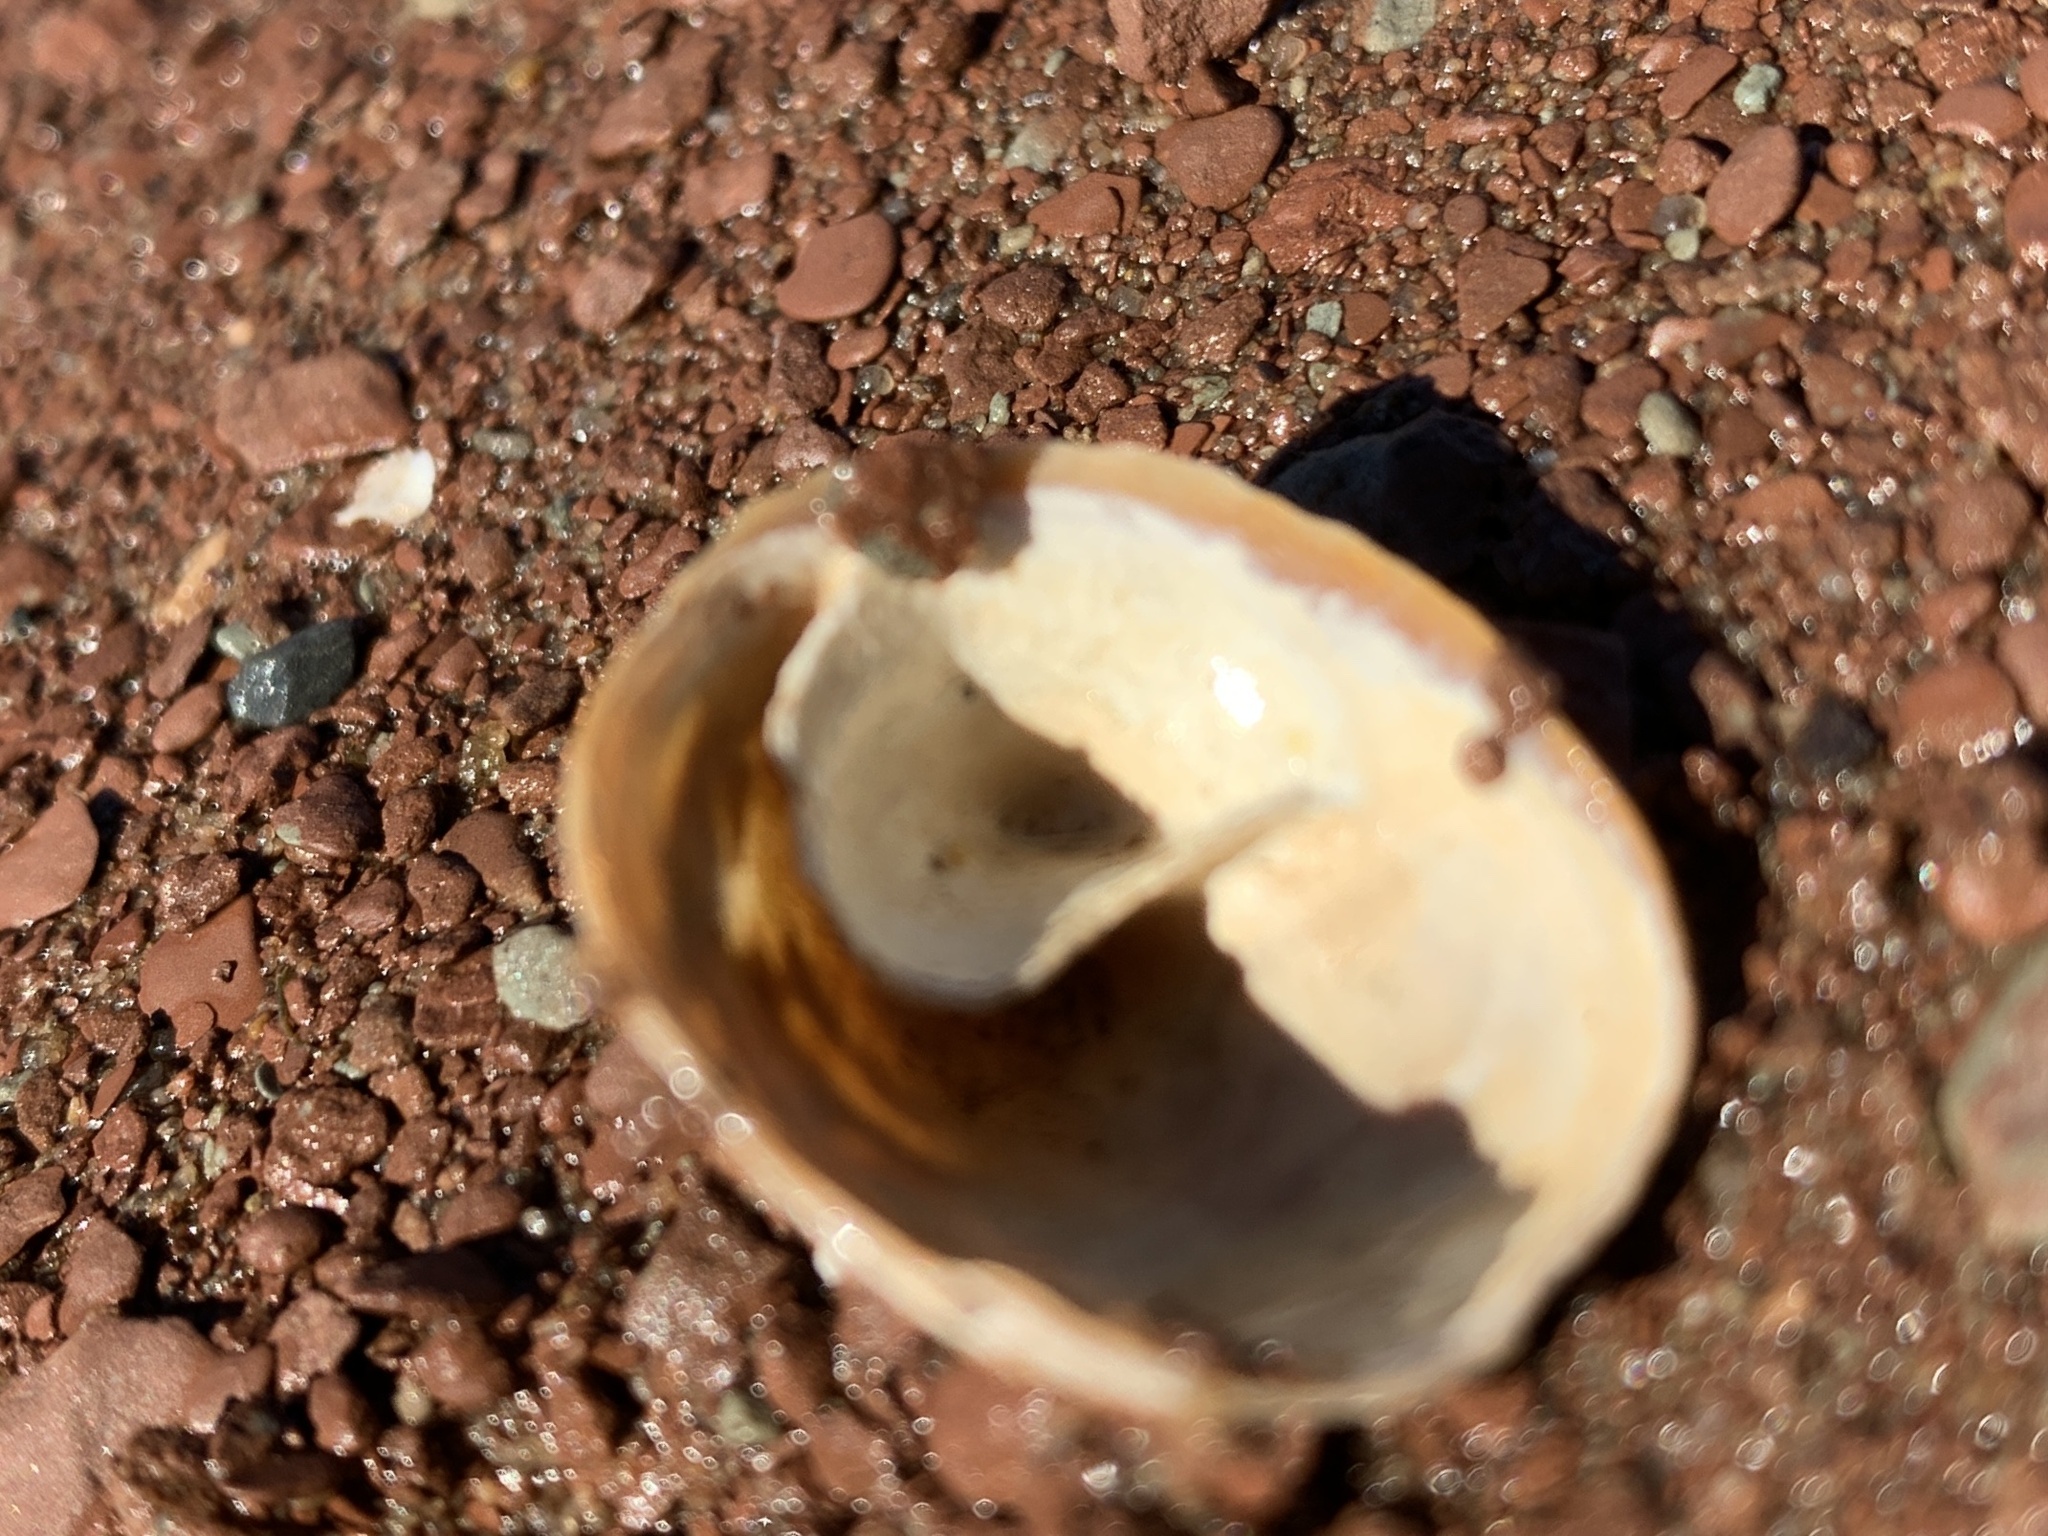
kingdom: Animalia
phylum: Mollusca
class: Gastropoda
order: Littorinimorpha
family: Calyptraeidae
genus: Crucibulum
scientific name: Crucibulum striatum
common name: Striate cup-and -saucer
